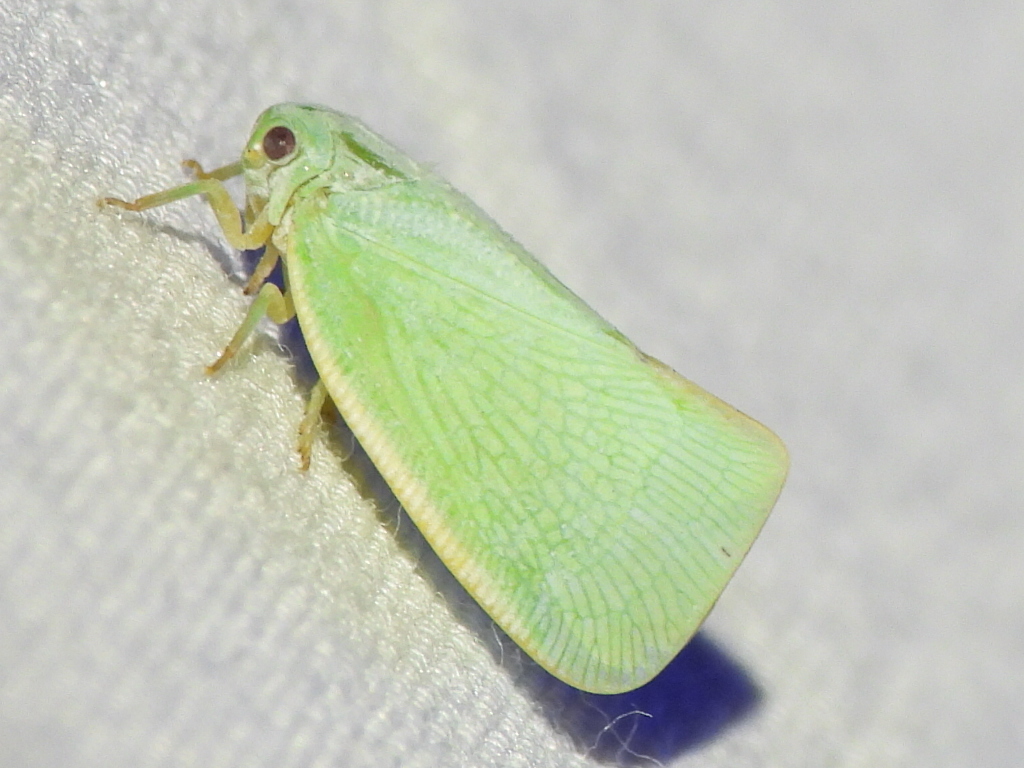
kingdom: Animalia
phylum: Arthropoda
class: Insecta
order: Hemiptera
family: Flatidae
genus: Flatormenis
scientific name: Flatormenis proxima
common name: Northern flatid planthopper
